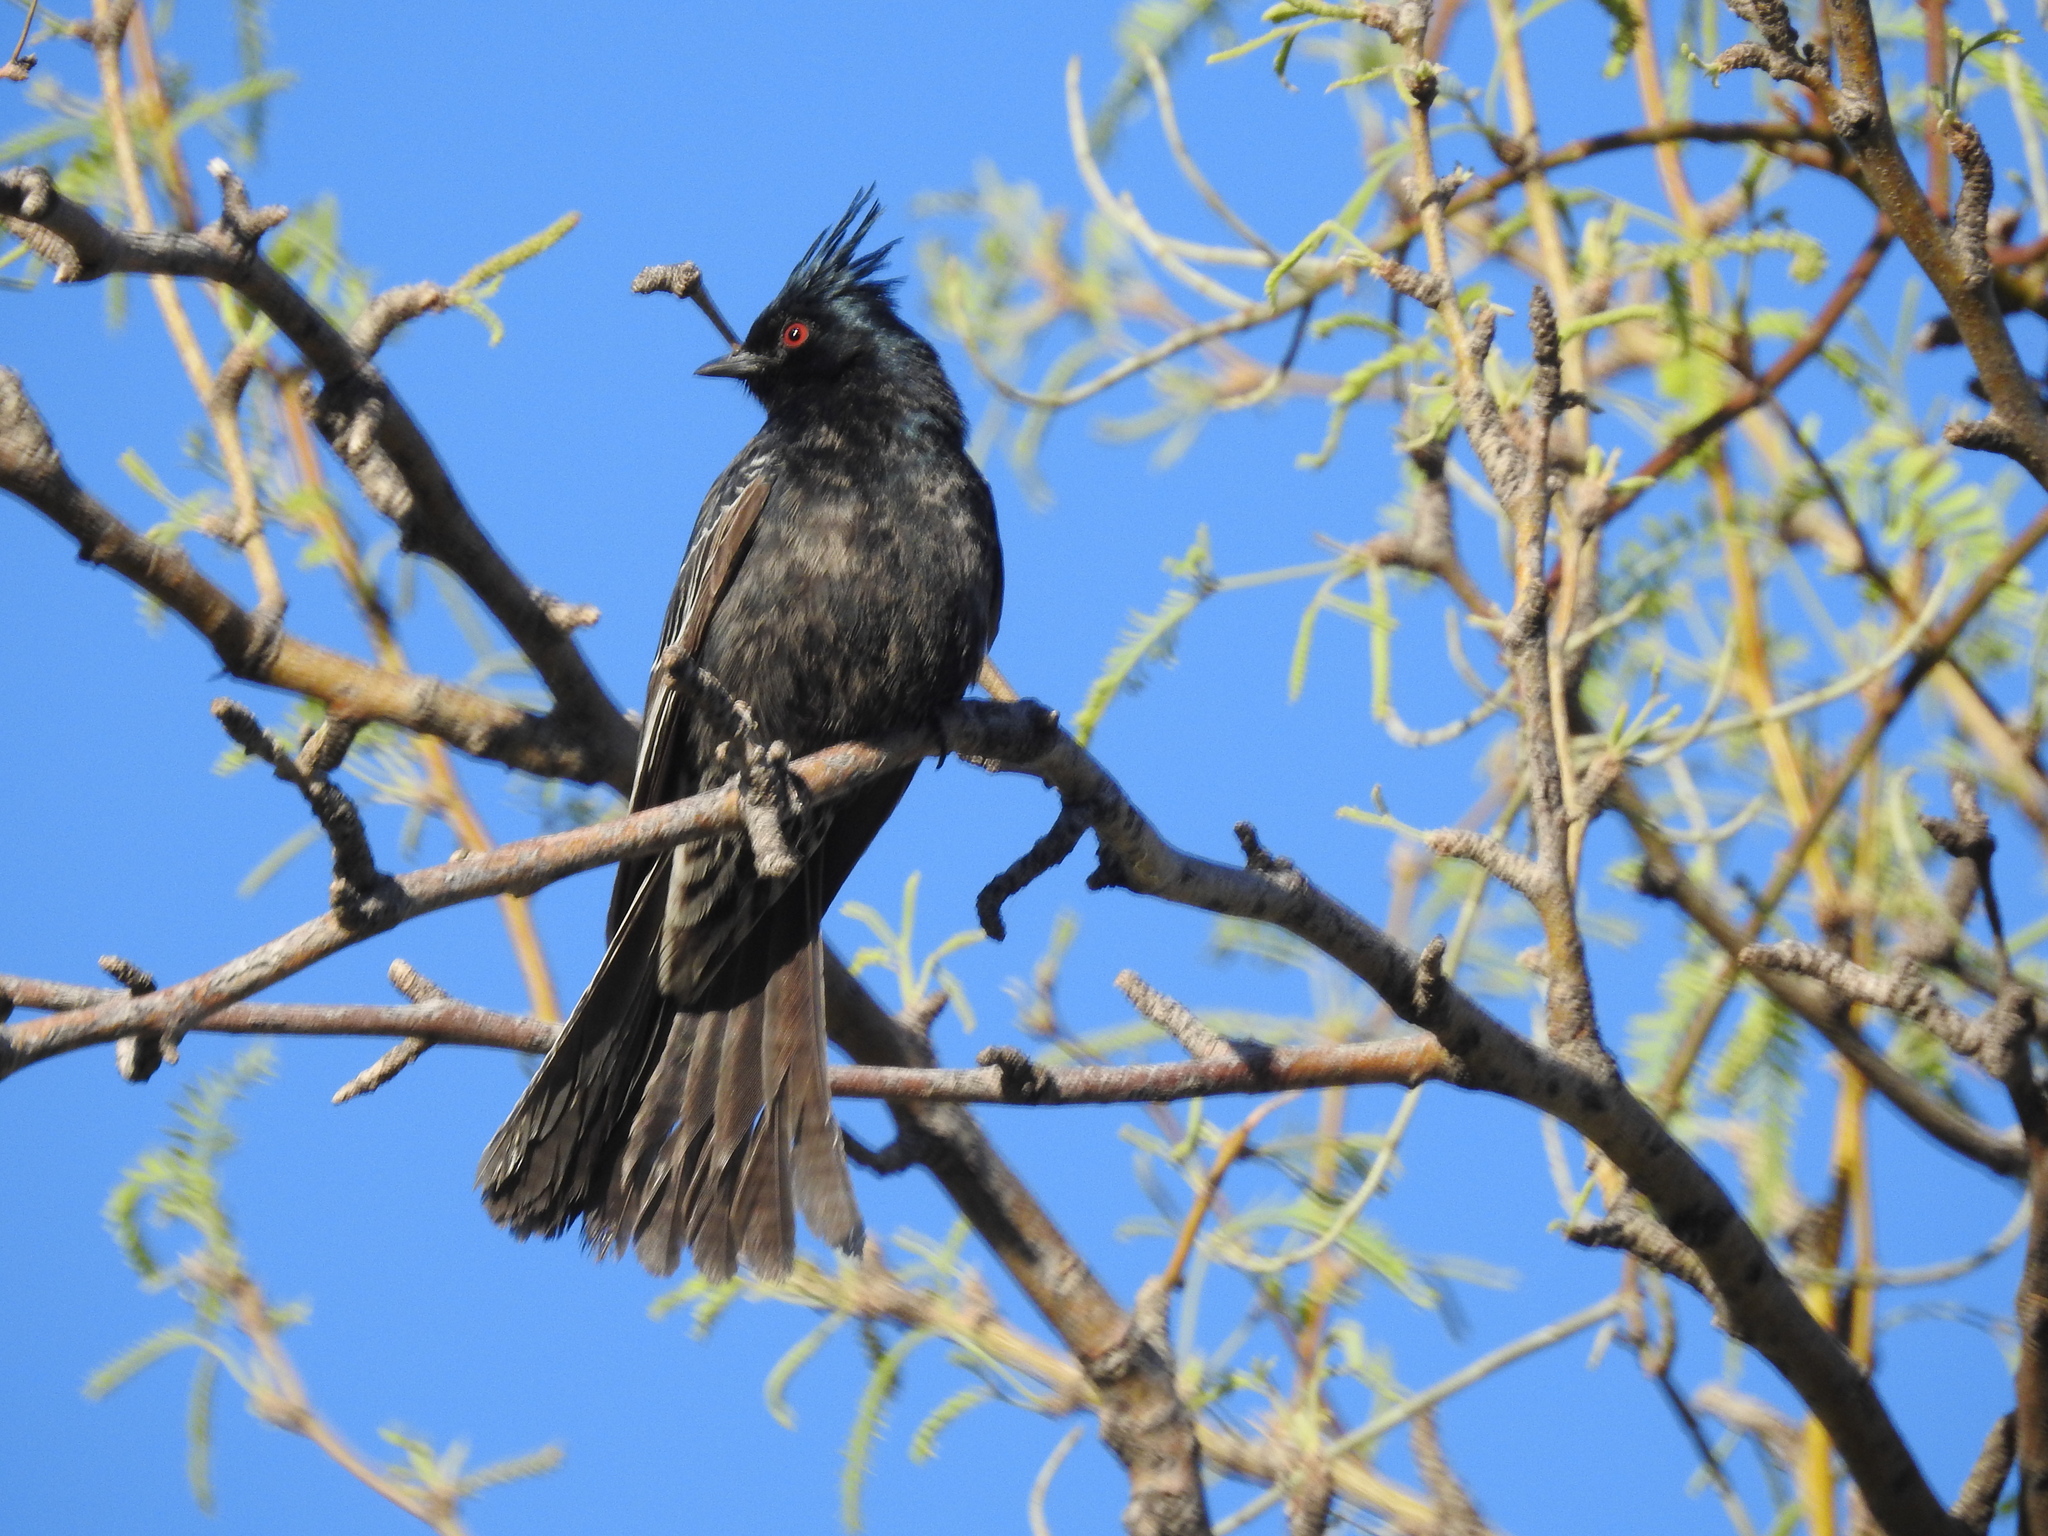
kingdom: Animalia
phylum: Chordata
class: Aves
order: Passeriformes
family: Ptilogonatidae
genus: Phainopepla
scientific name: Phainopepla nitens
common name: Phainopepla
